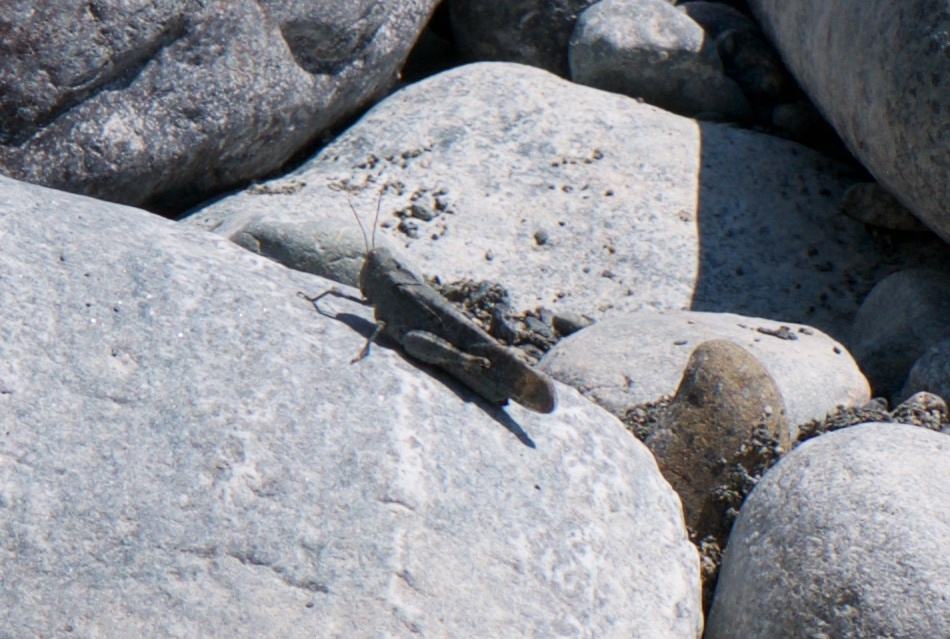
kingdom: Animalia
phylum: Arthropoda
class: Insecta
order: Orthoptera
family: Acrididae
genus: Dissosteira
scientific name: Dissosteira carolina
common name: Carolina grasshopper
